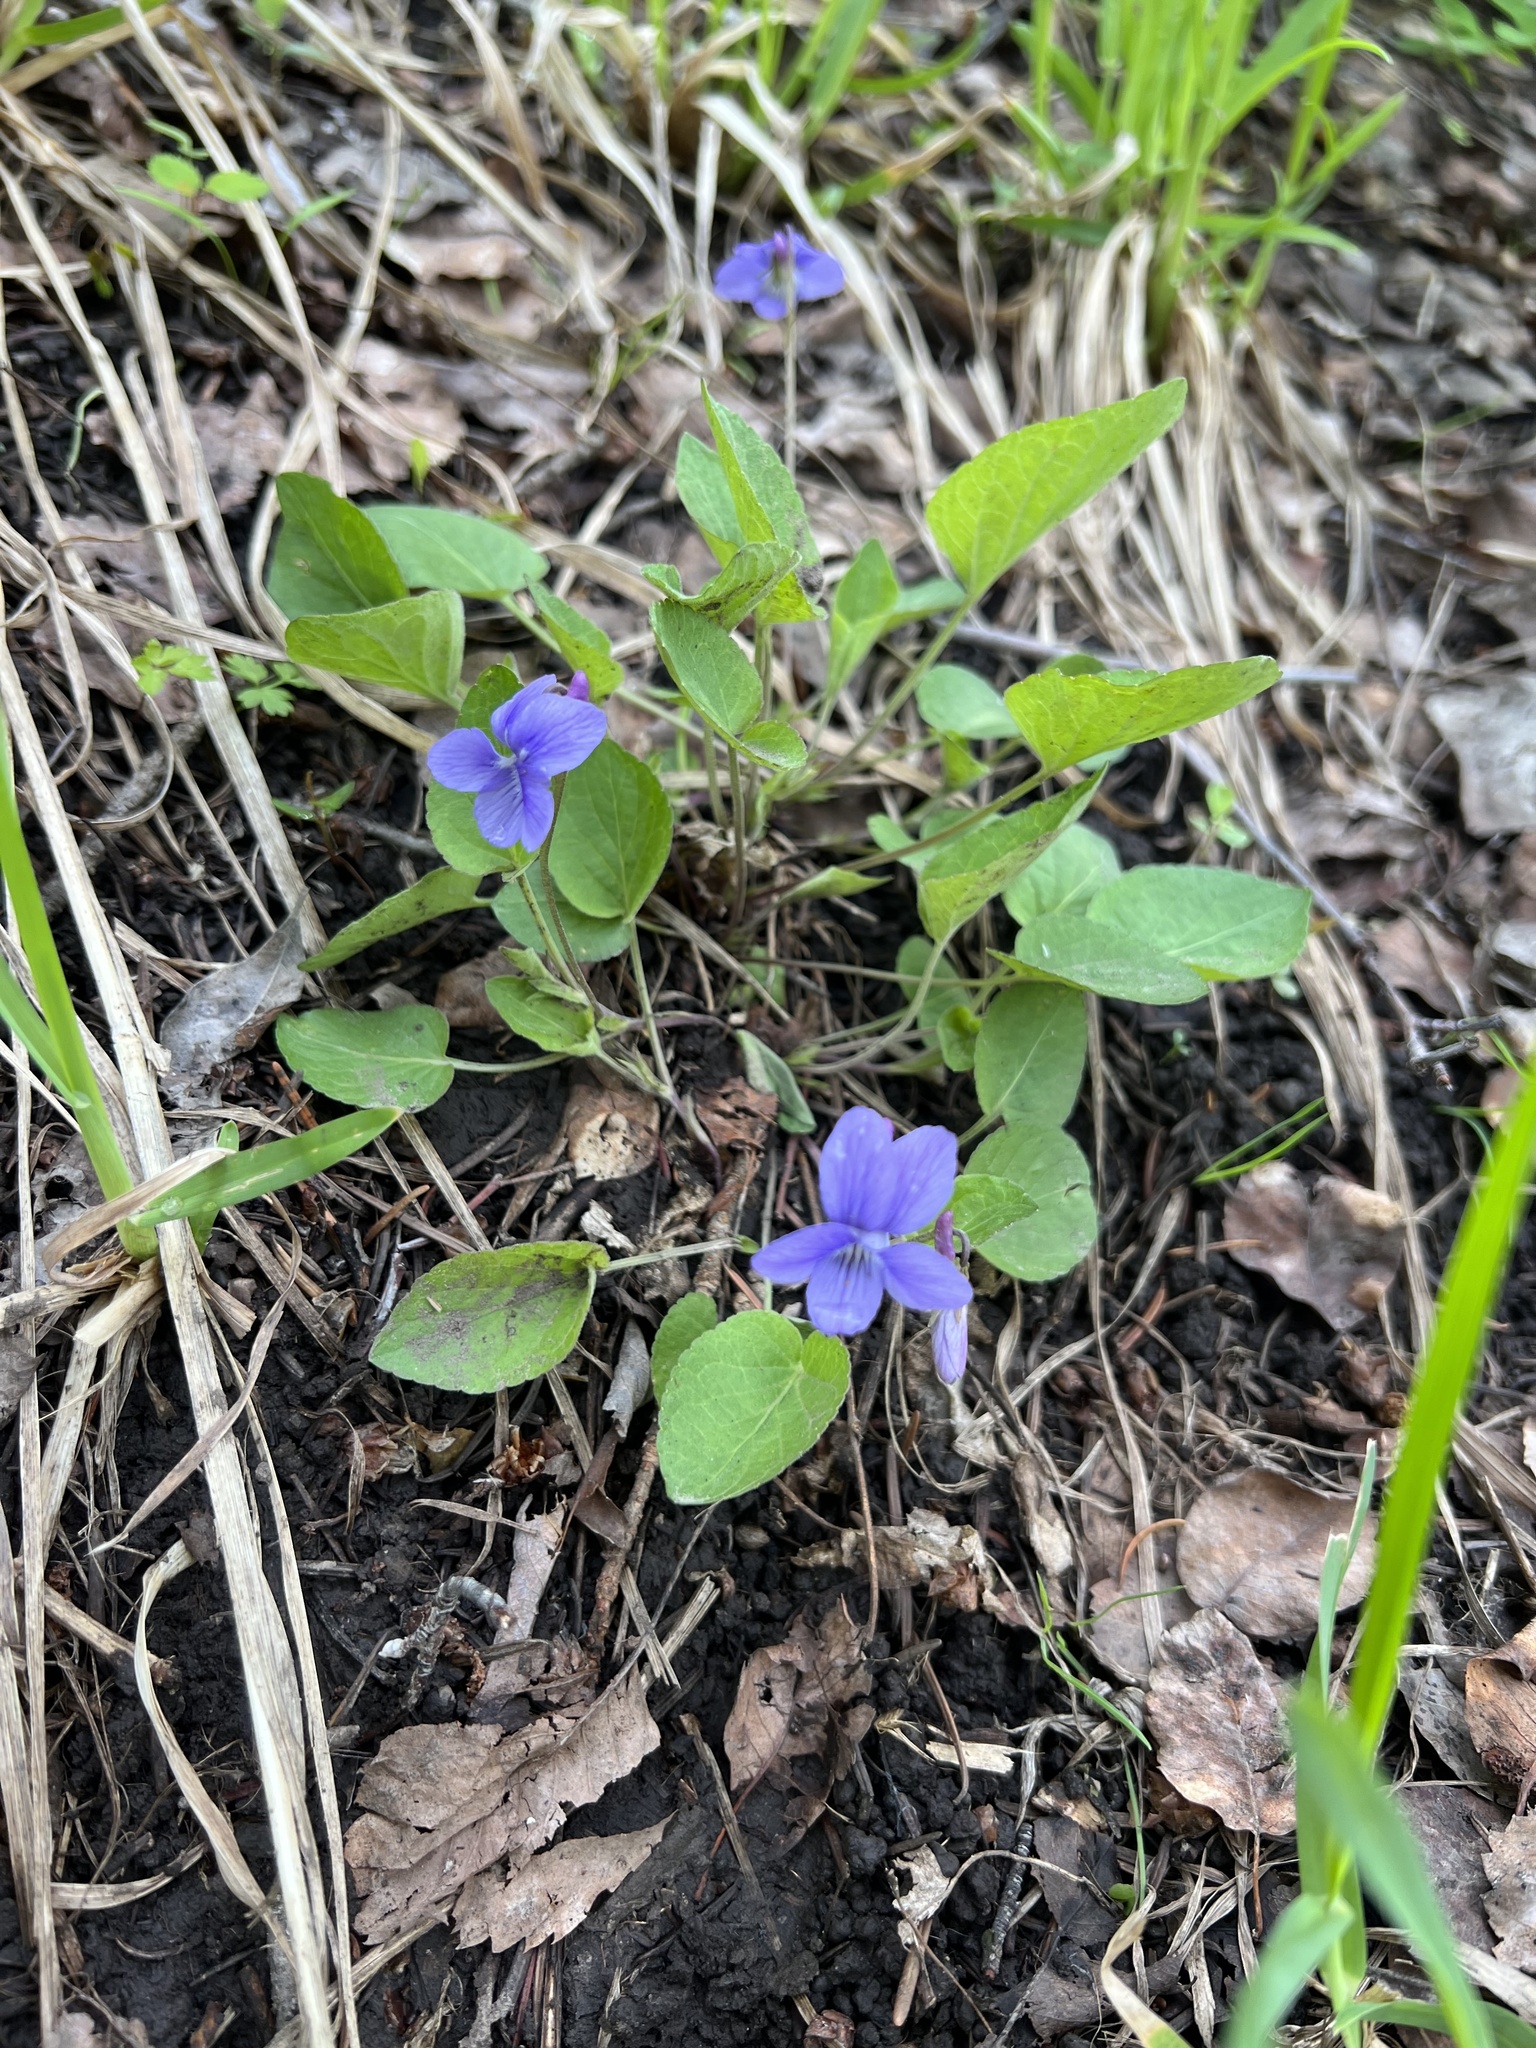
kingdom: Plantae
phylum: Tracheophyta
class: Magnoliopsida
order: Malpighiales
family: Violaceae
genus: Viola
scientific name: Viola adunca
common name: Sand violet
